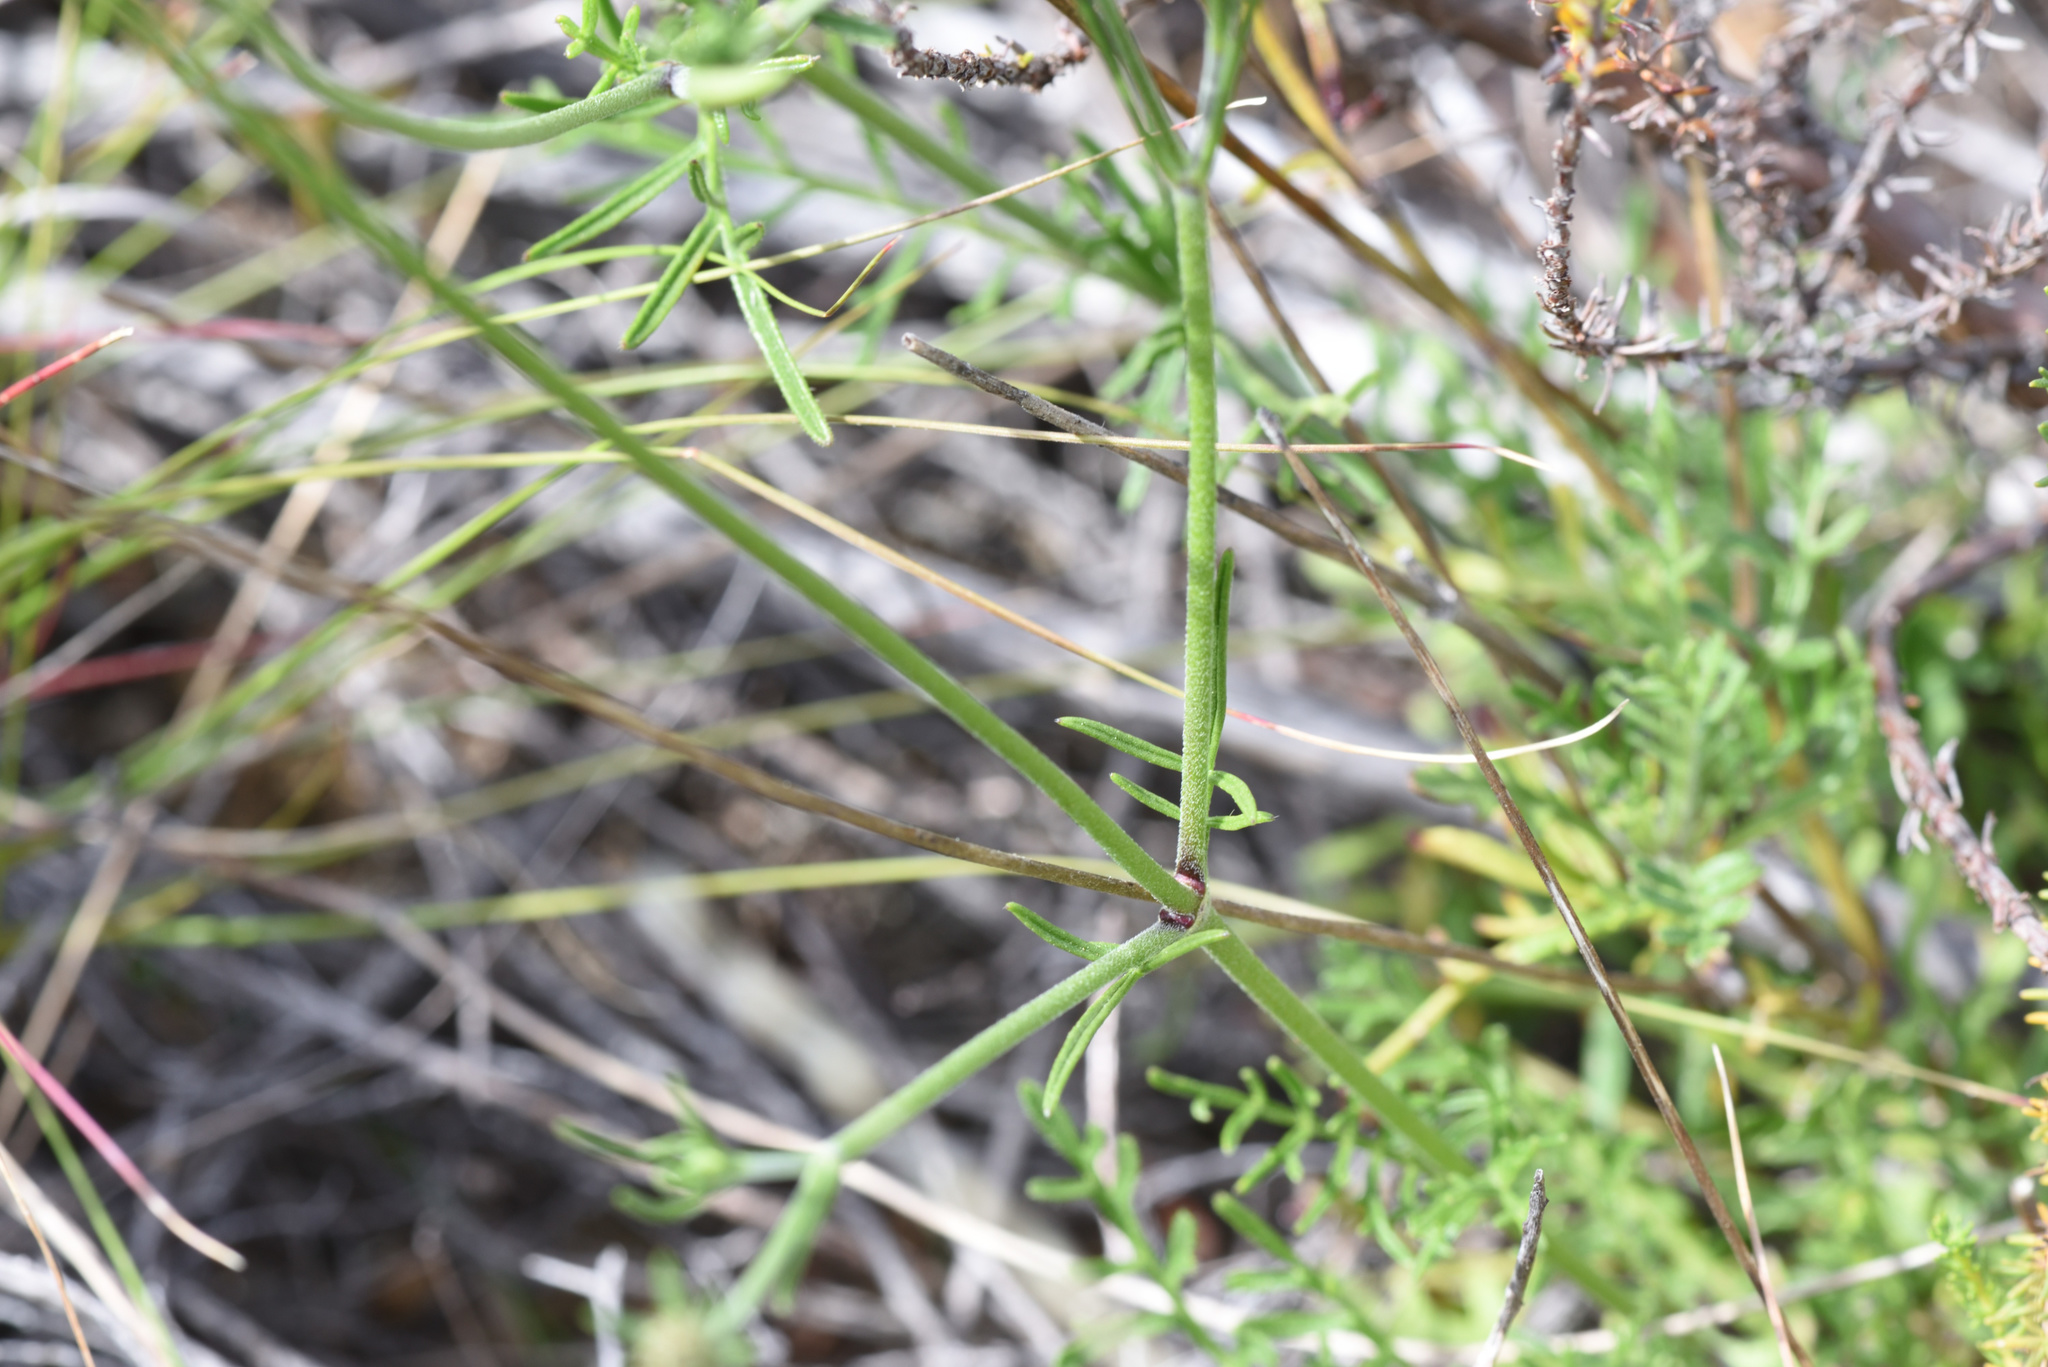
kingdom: Plantae
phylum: Tracheophyta
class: Magnoliopsida
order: Dipsacales
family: Caprifoliaceae
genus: Scabiosa
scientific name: Scabiosa columbaria
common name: Small scabious
